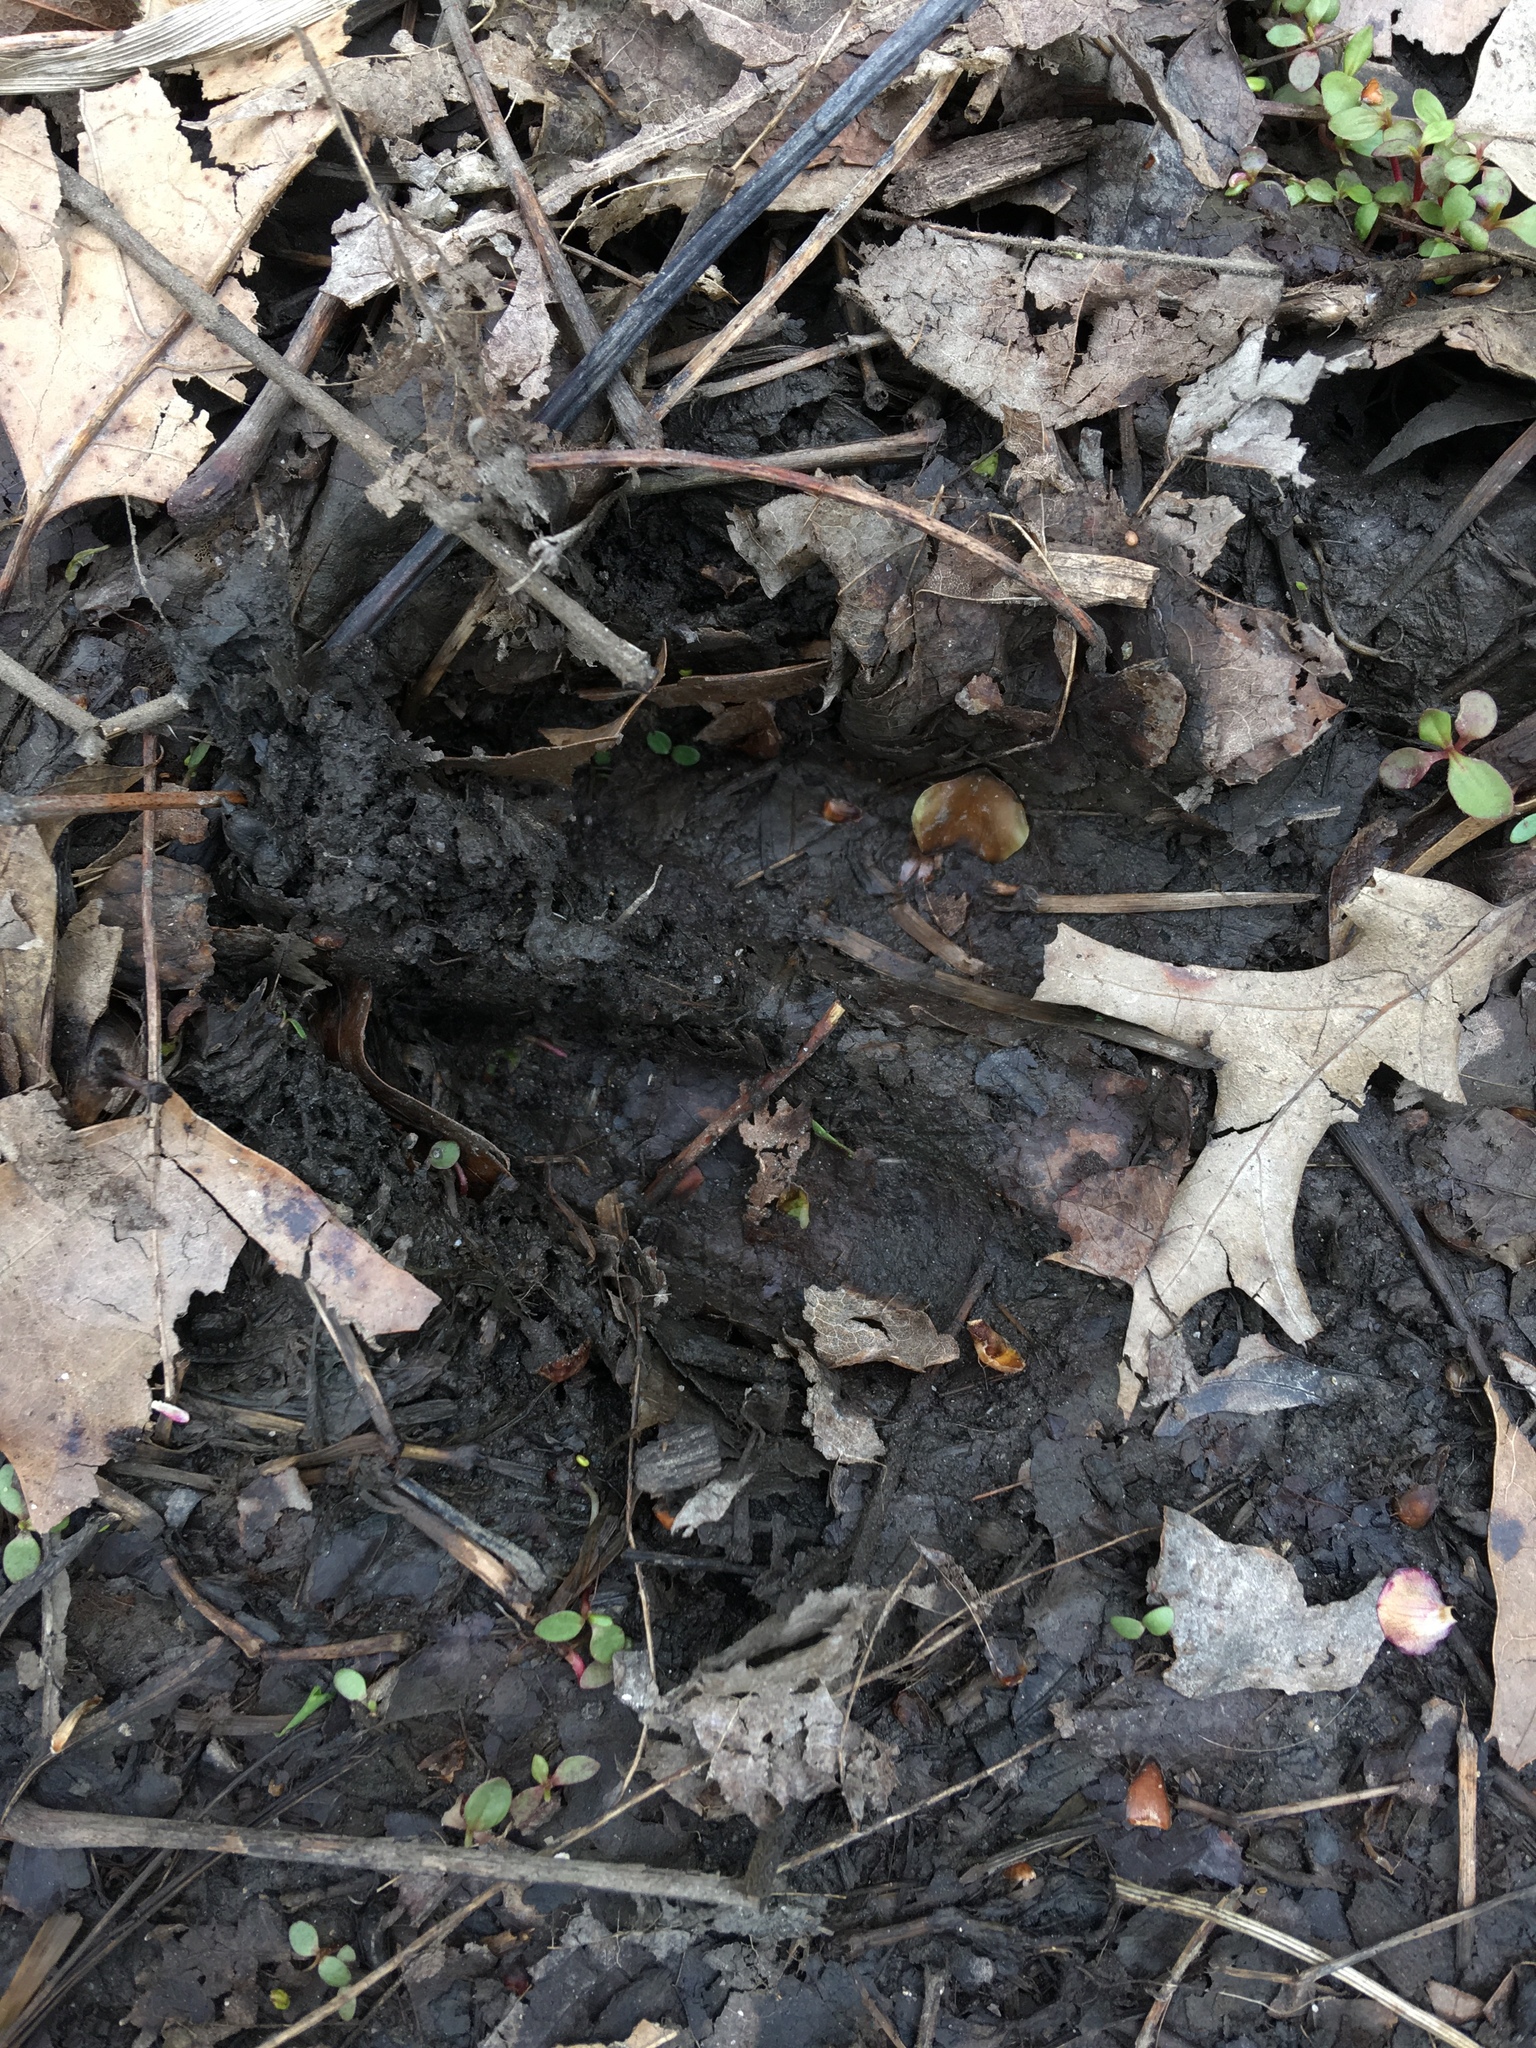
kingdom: Animalia
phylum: Chordata
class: Mammalia
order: Artiodactyla
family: Cervidae
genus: Odocoileus
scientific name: Odocoileus virginianus
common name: White-tailed deer
